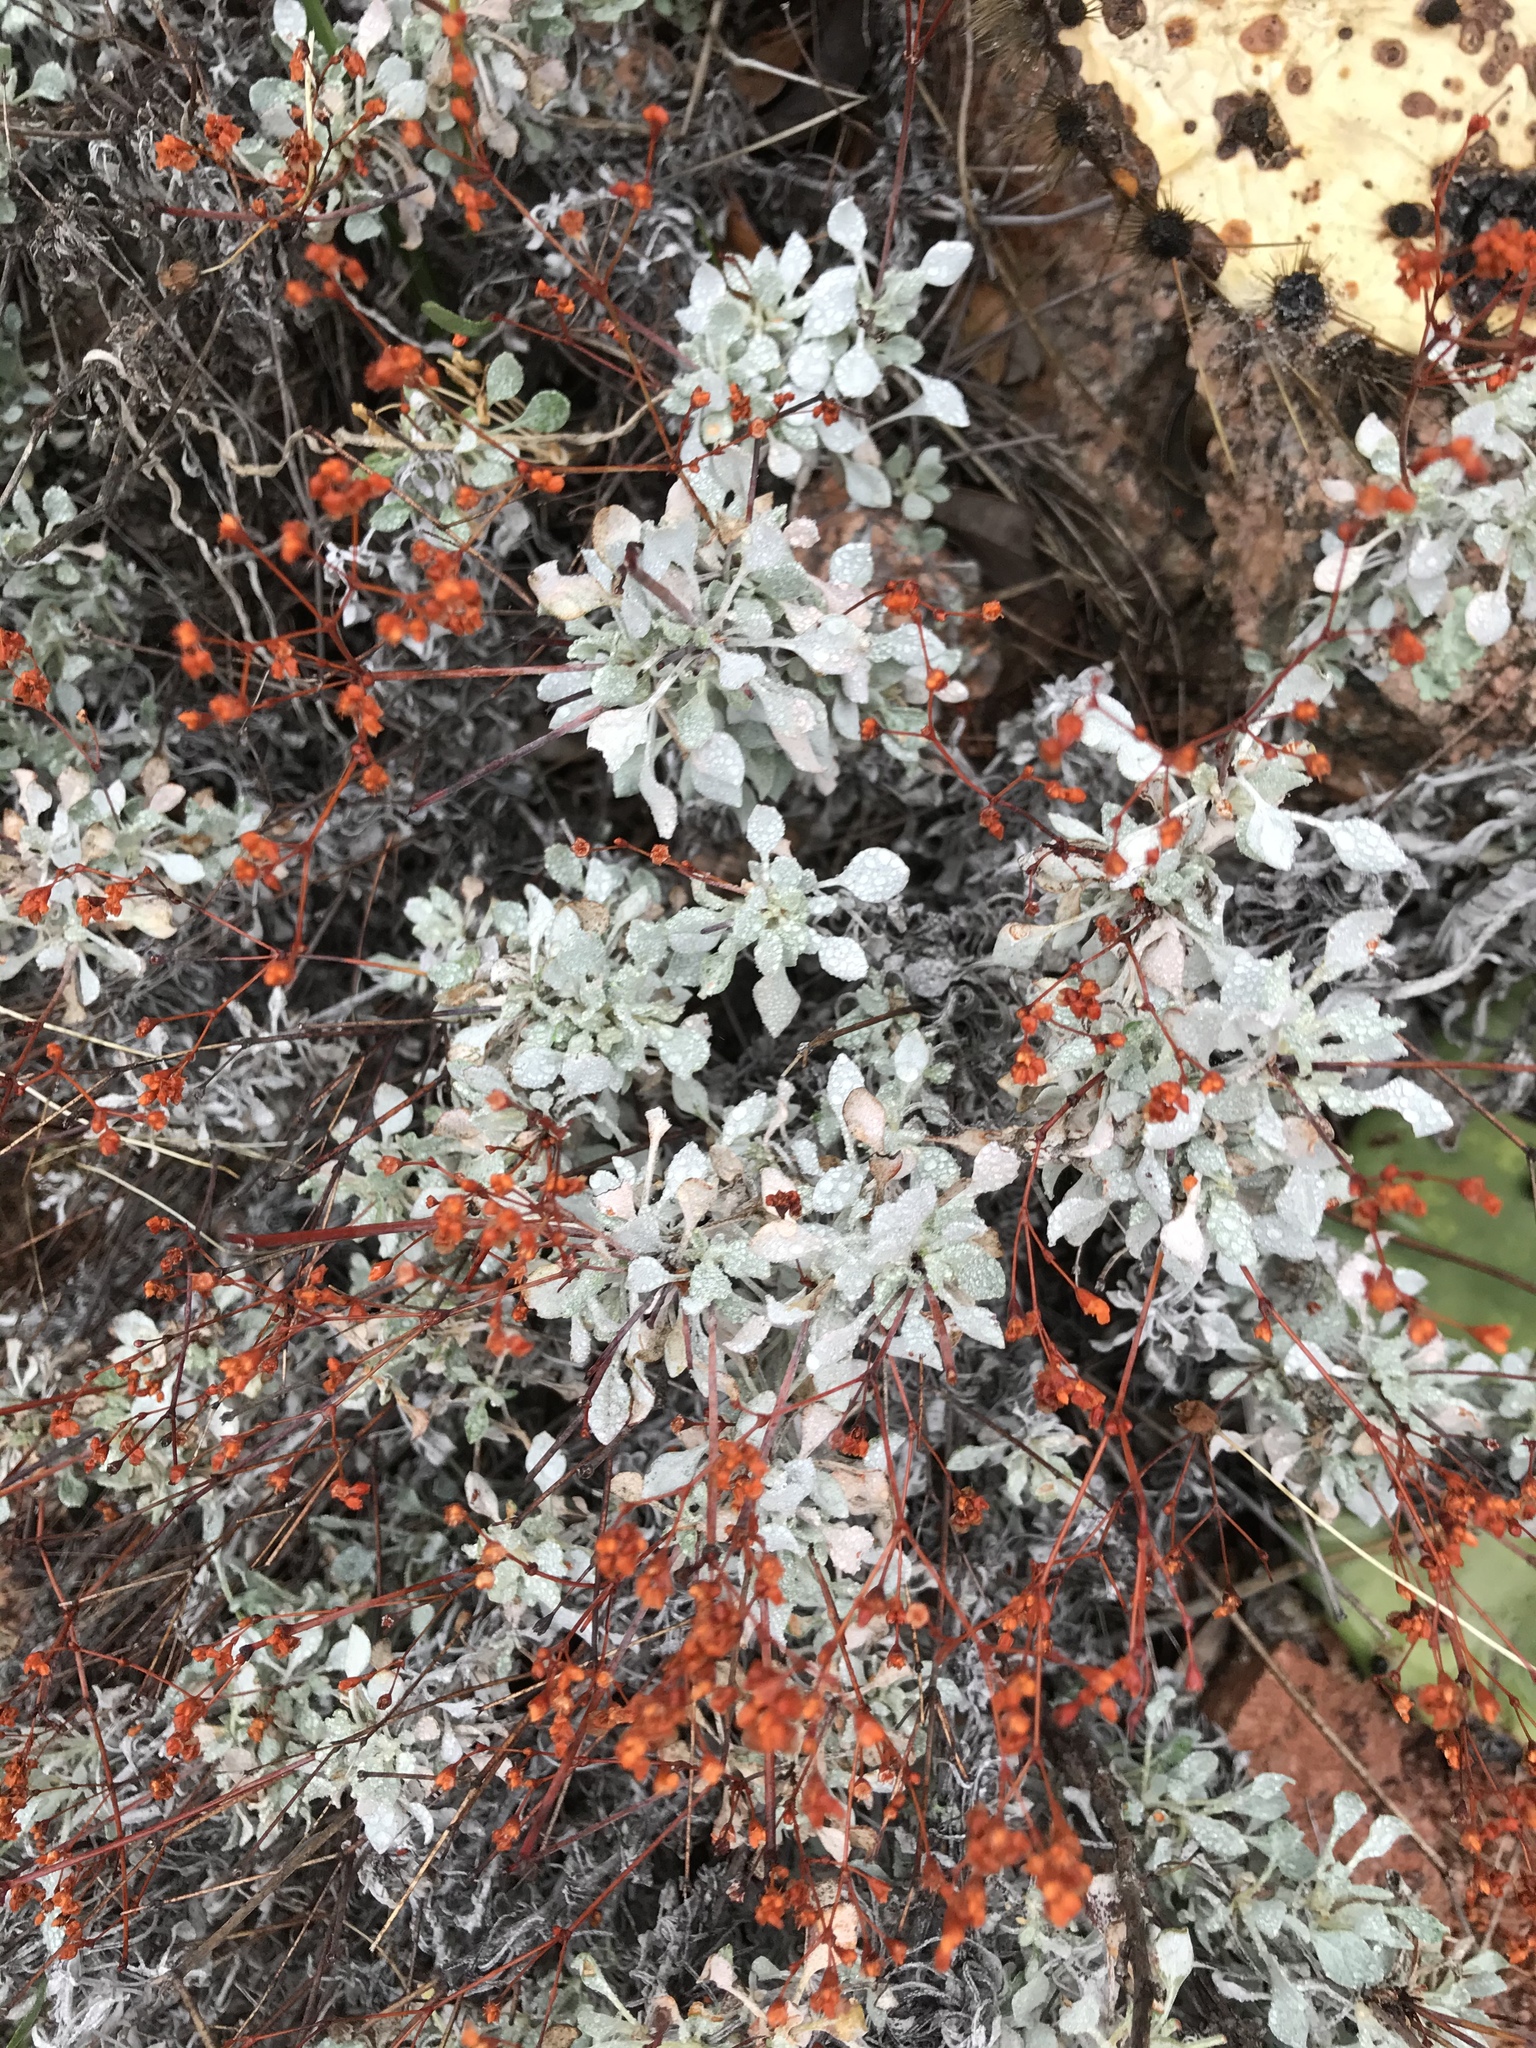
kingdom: Plantae
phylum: Tracheophyta
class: Magnoliopsida
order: Caryophyllales
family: Polygonaceae
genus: Eriogonum
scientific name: Eriogonum graniticum
